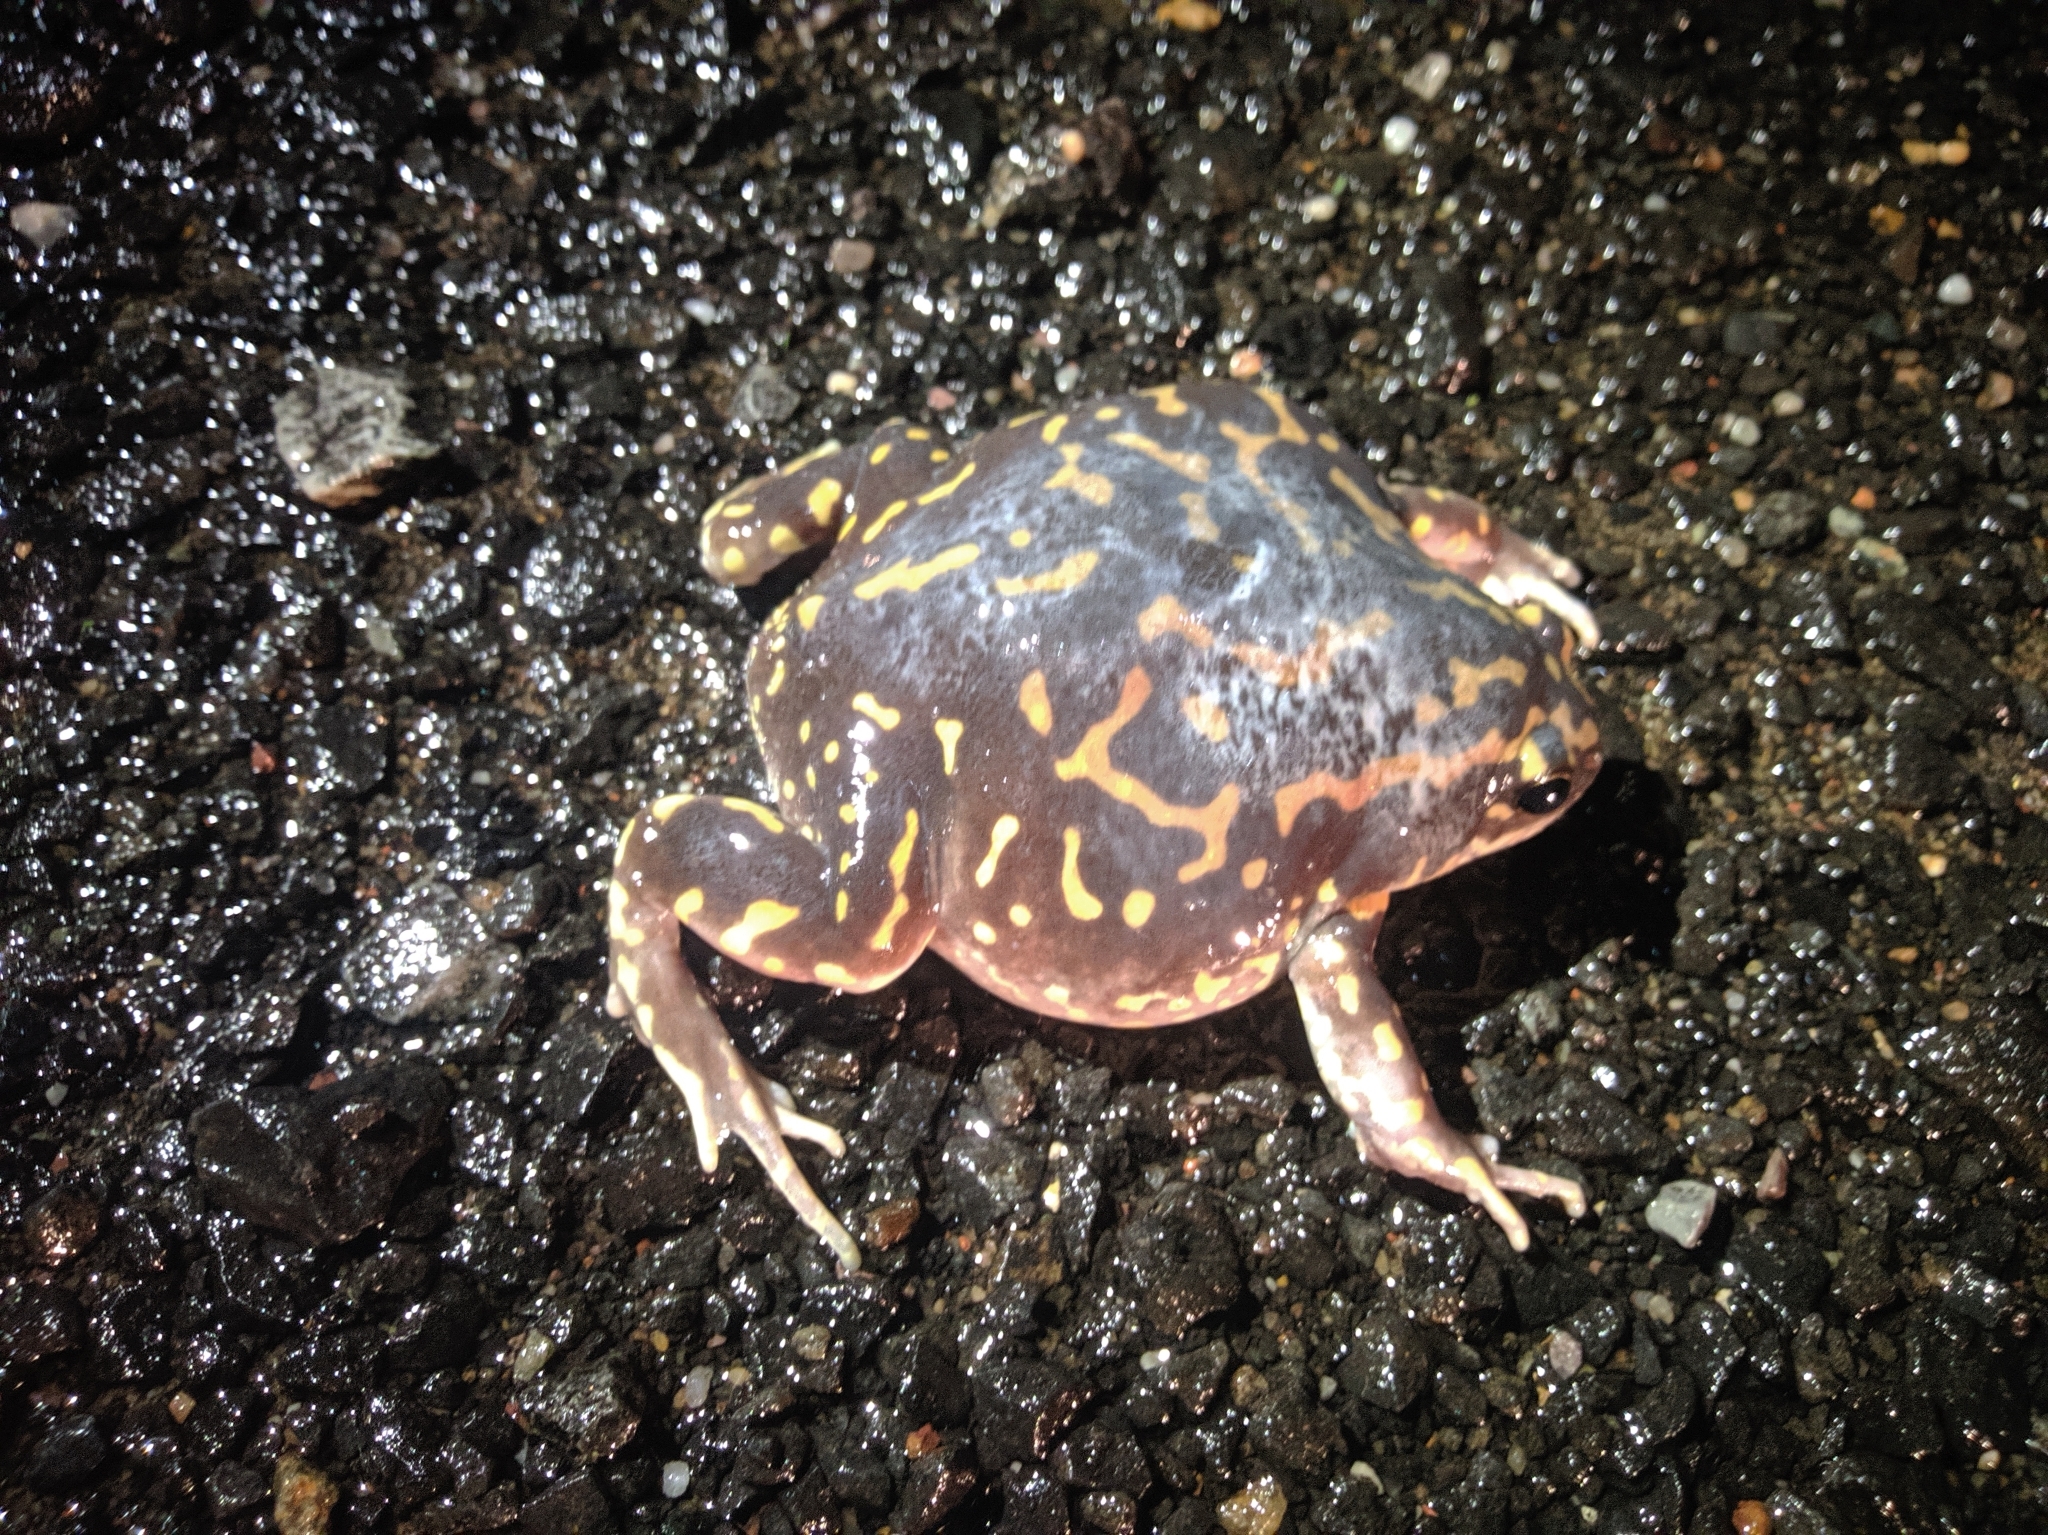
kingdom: Animalia
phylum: Chordata
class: Amphibia
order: Anura
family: Microhylidae
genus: Uperodon
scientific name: Uperodon systoma
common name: Balloon frog
